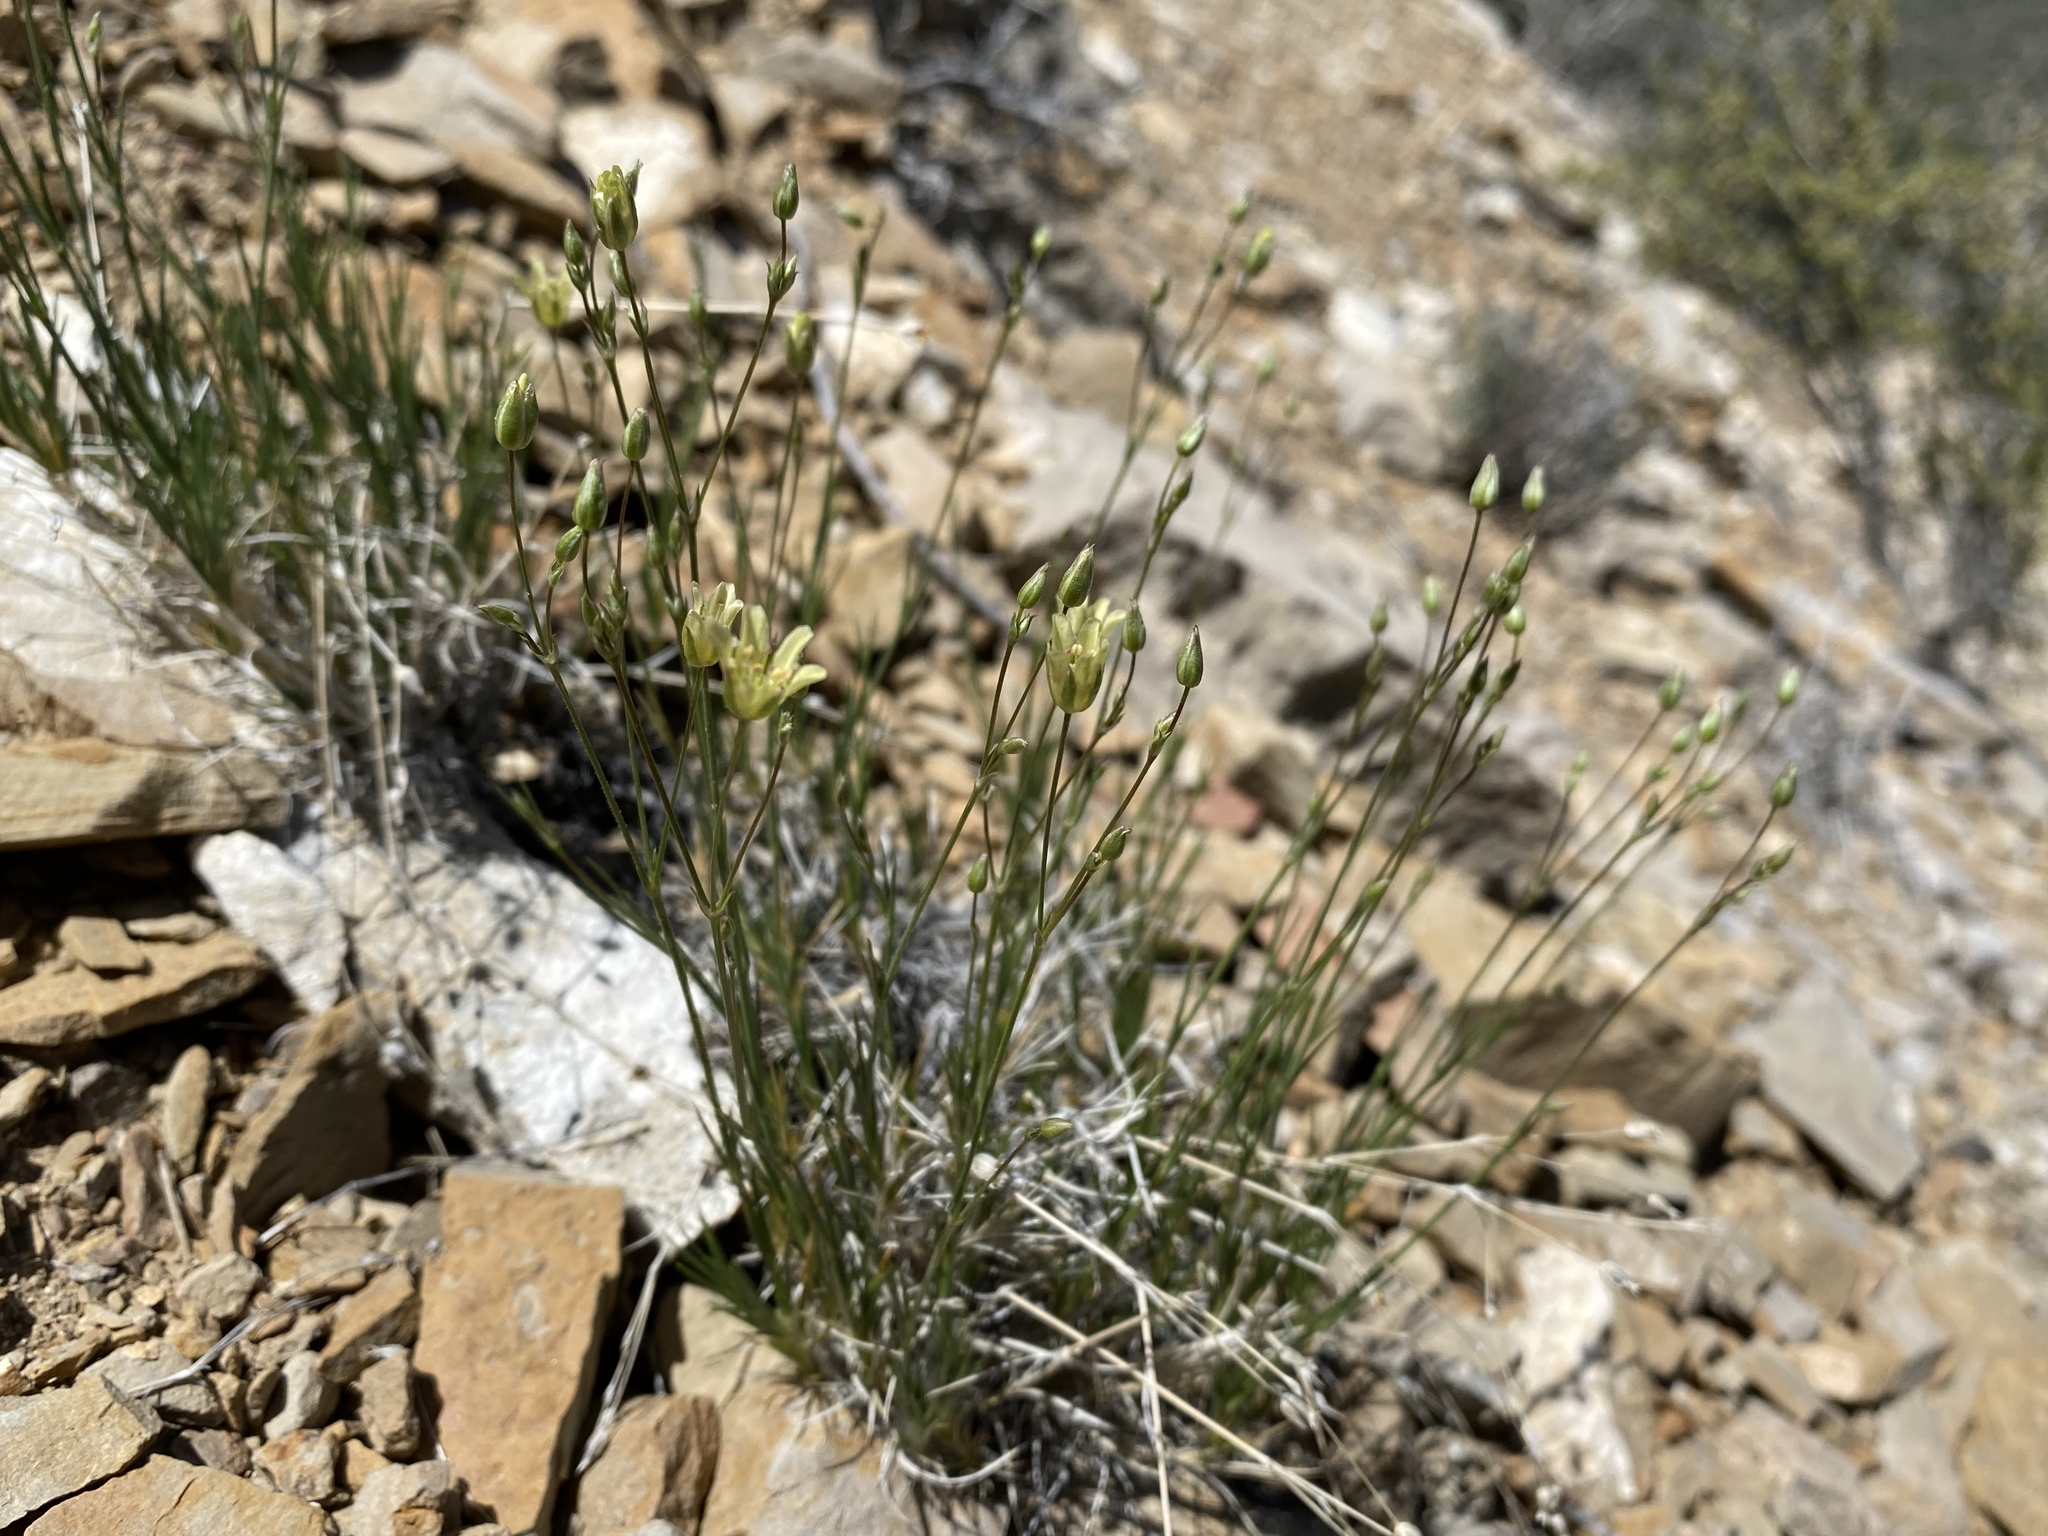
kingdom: Plantae
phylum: Tracheophyta
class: Magnoliopsida
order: Caryophyllales
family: Caryophyllaceae
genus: Eremogone
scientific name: Eremogone macradenia
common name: Mohave sandwort
